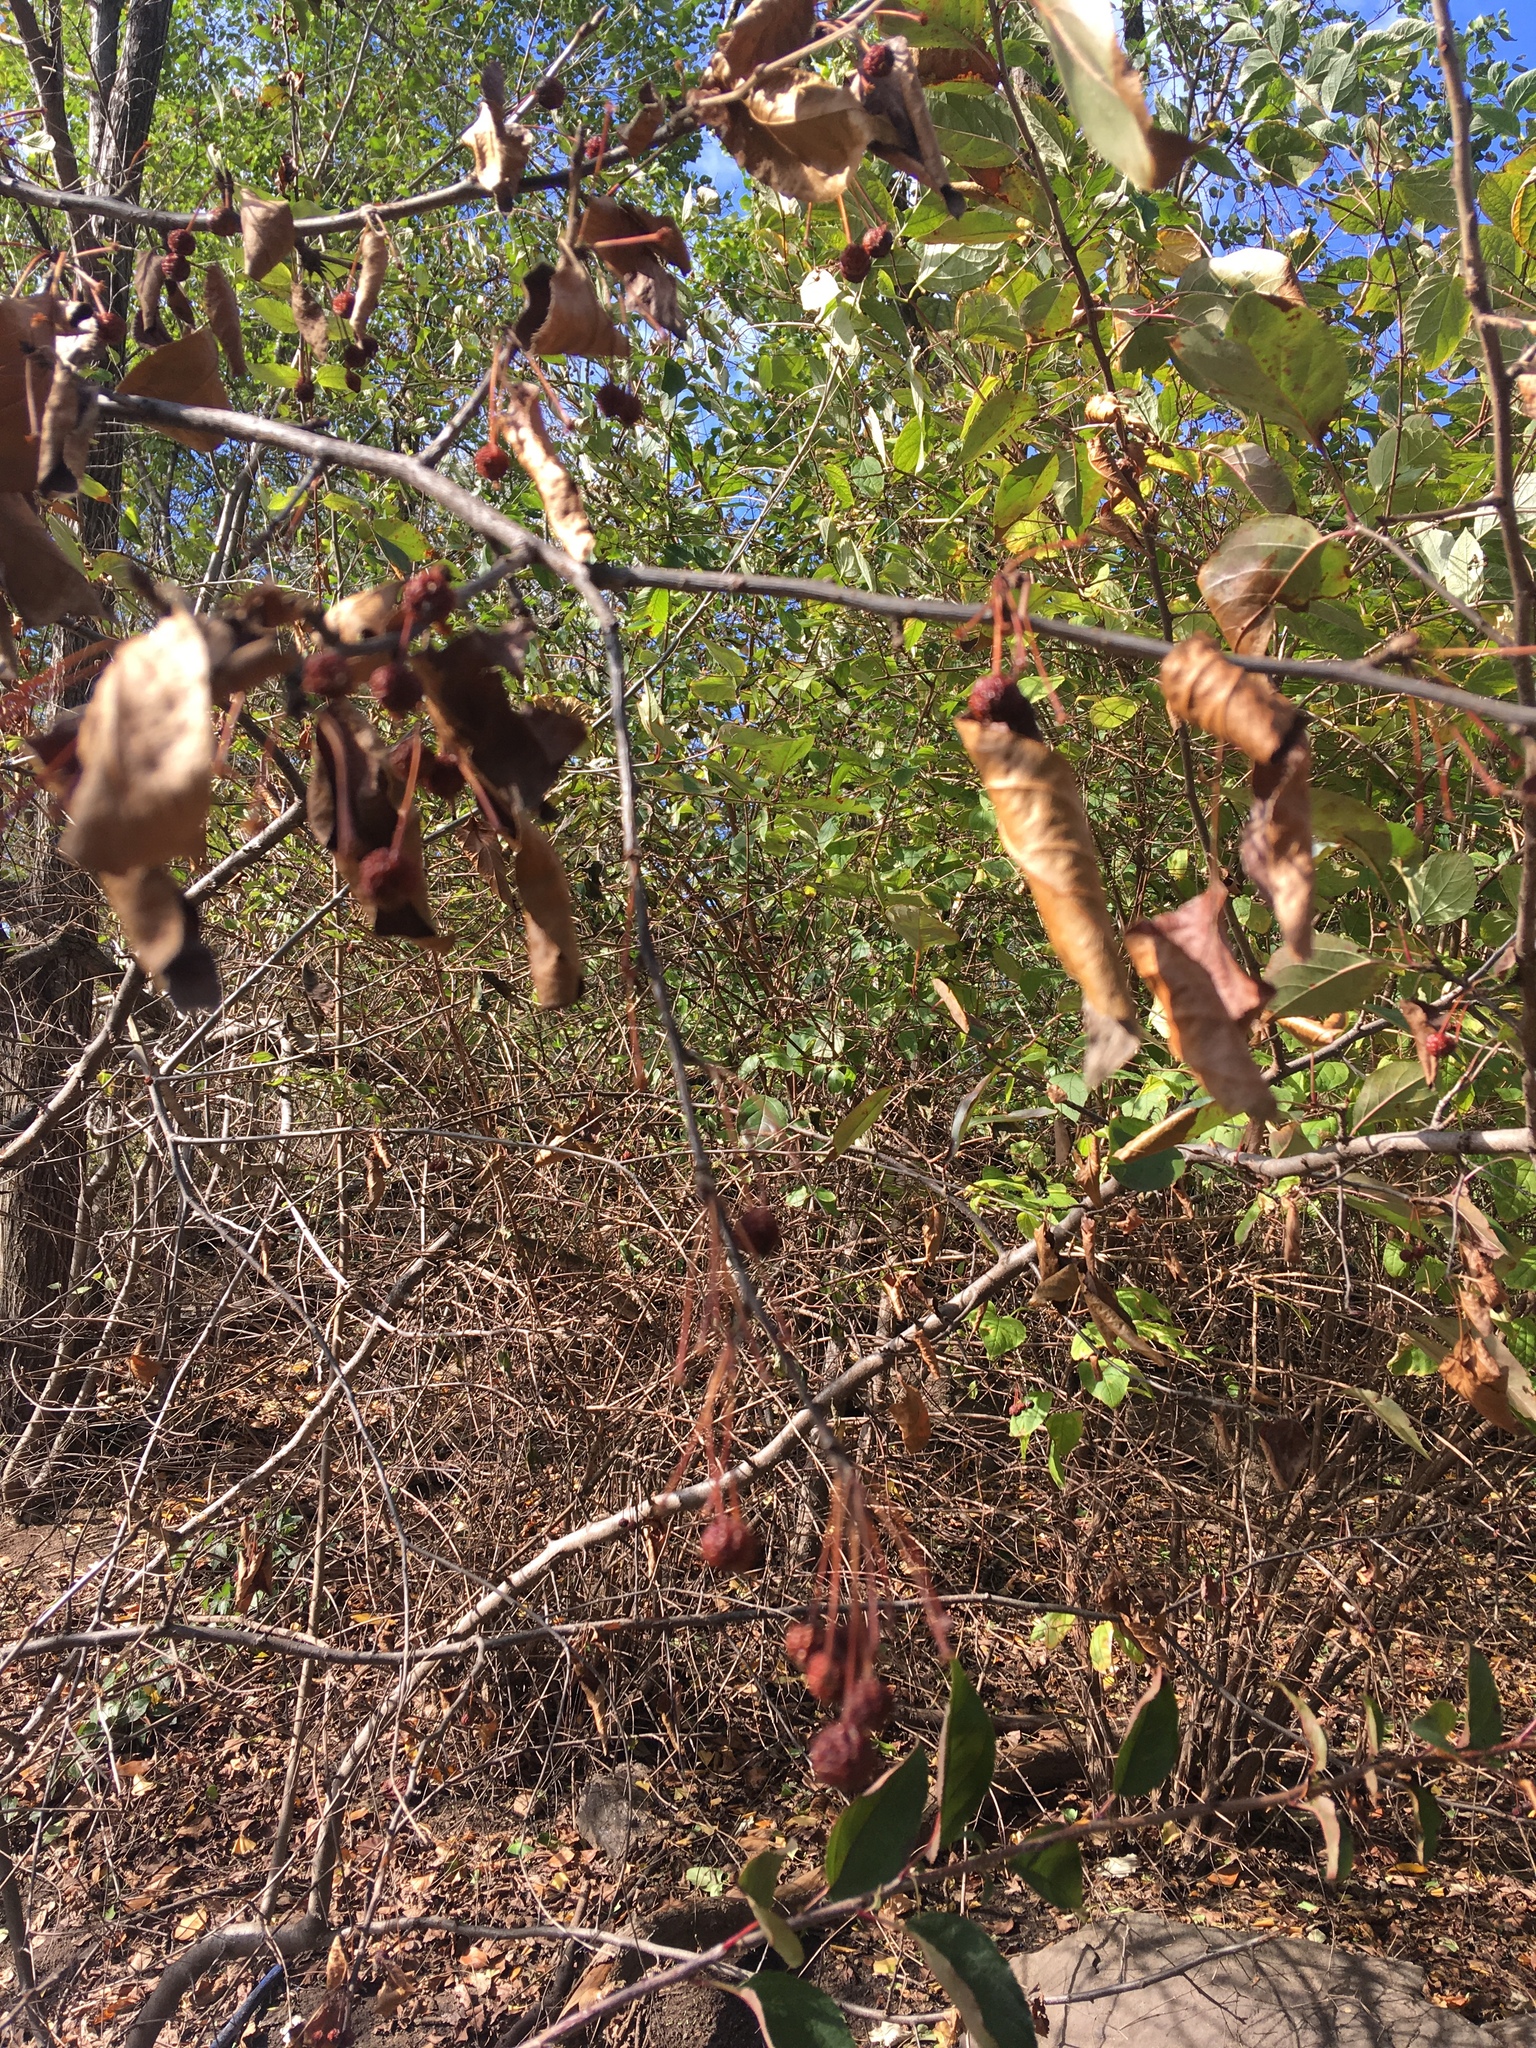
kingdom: Plantae
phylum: Tracheophyta
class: Magnoliopsida
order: Rosales
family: Rosaceae
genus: Malus
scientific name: Malus hupehensis
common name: Chinese crab apple
